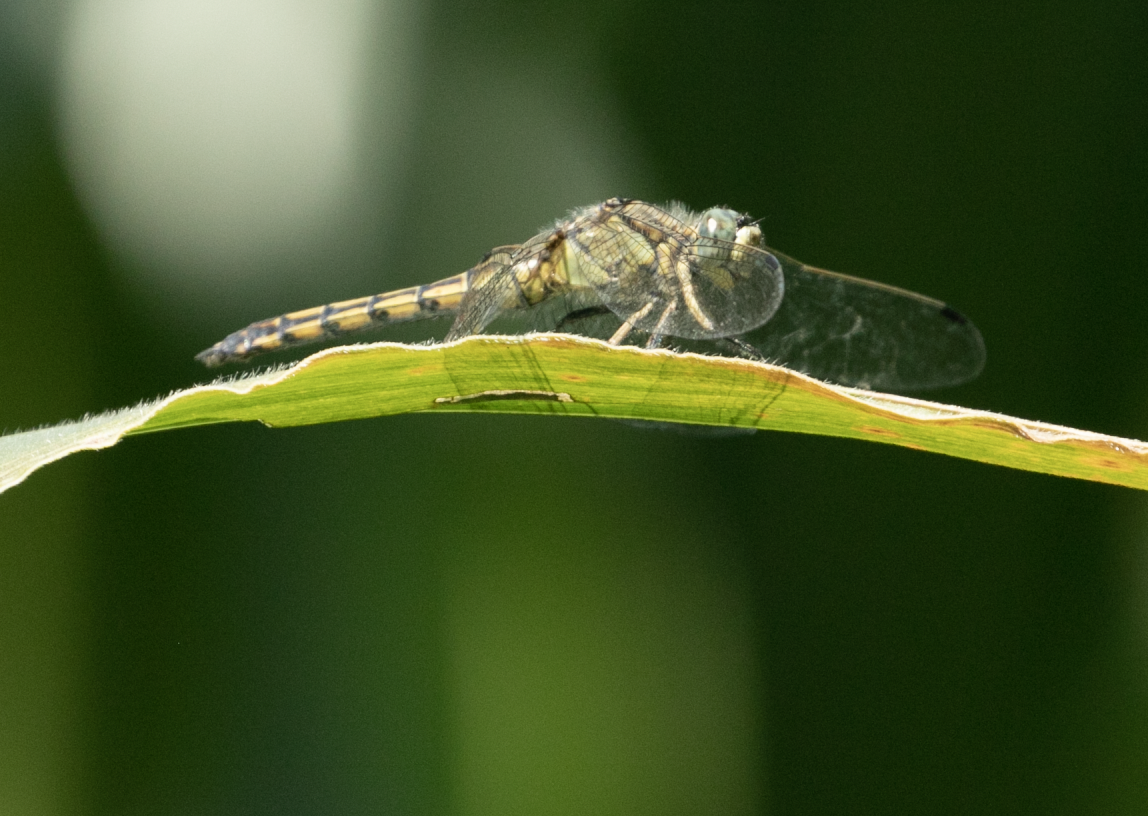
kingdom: Animalia
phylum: Arthropoda
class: Insecta
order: Odonata
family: Libellulidae
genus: Orthetrum
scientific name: Orthetrum cancellatum
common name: Black-tailed skimmer
